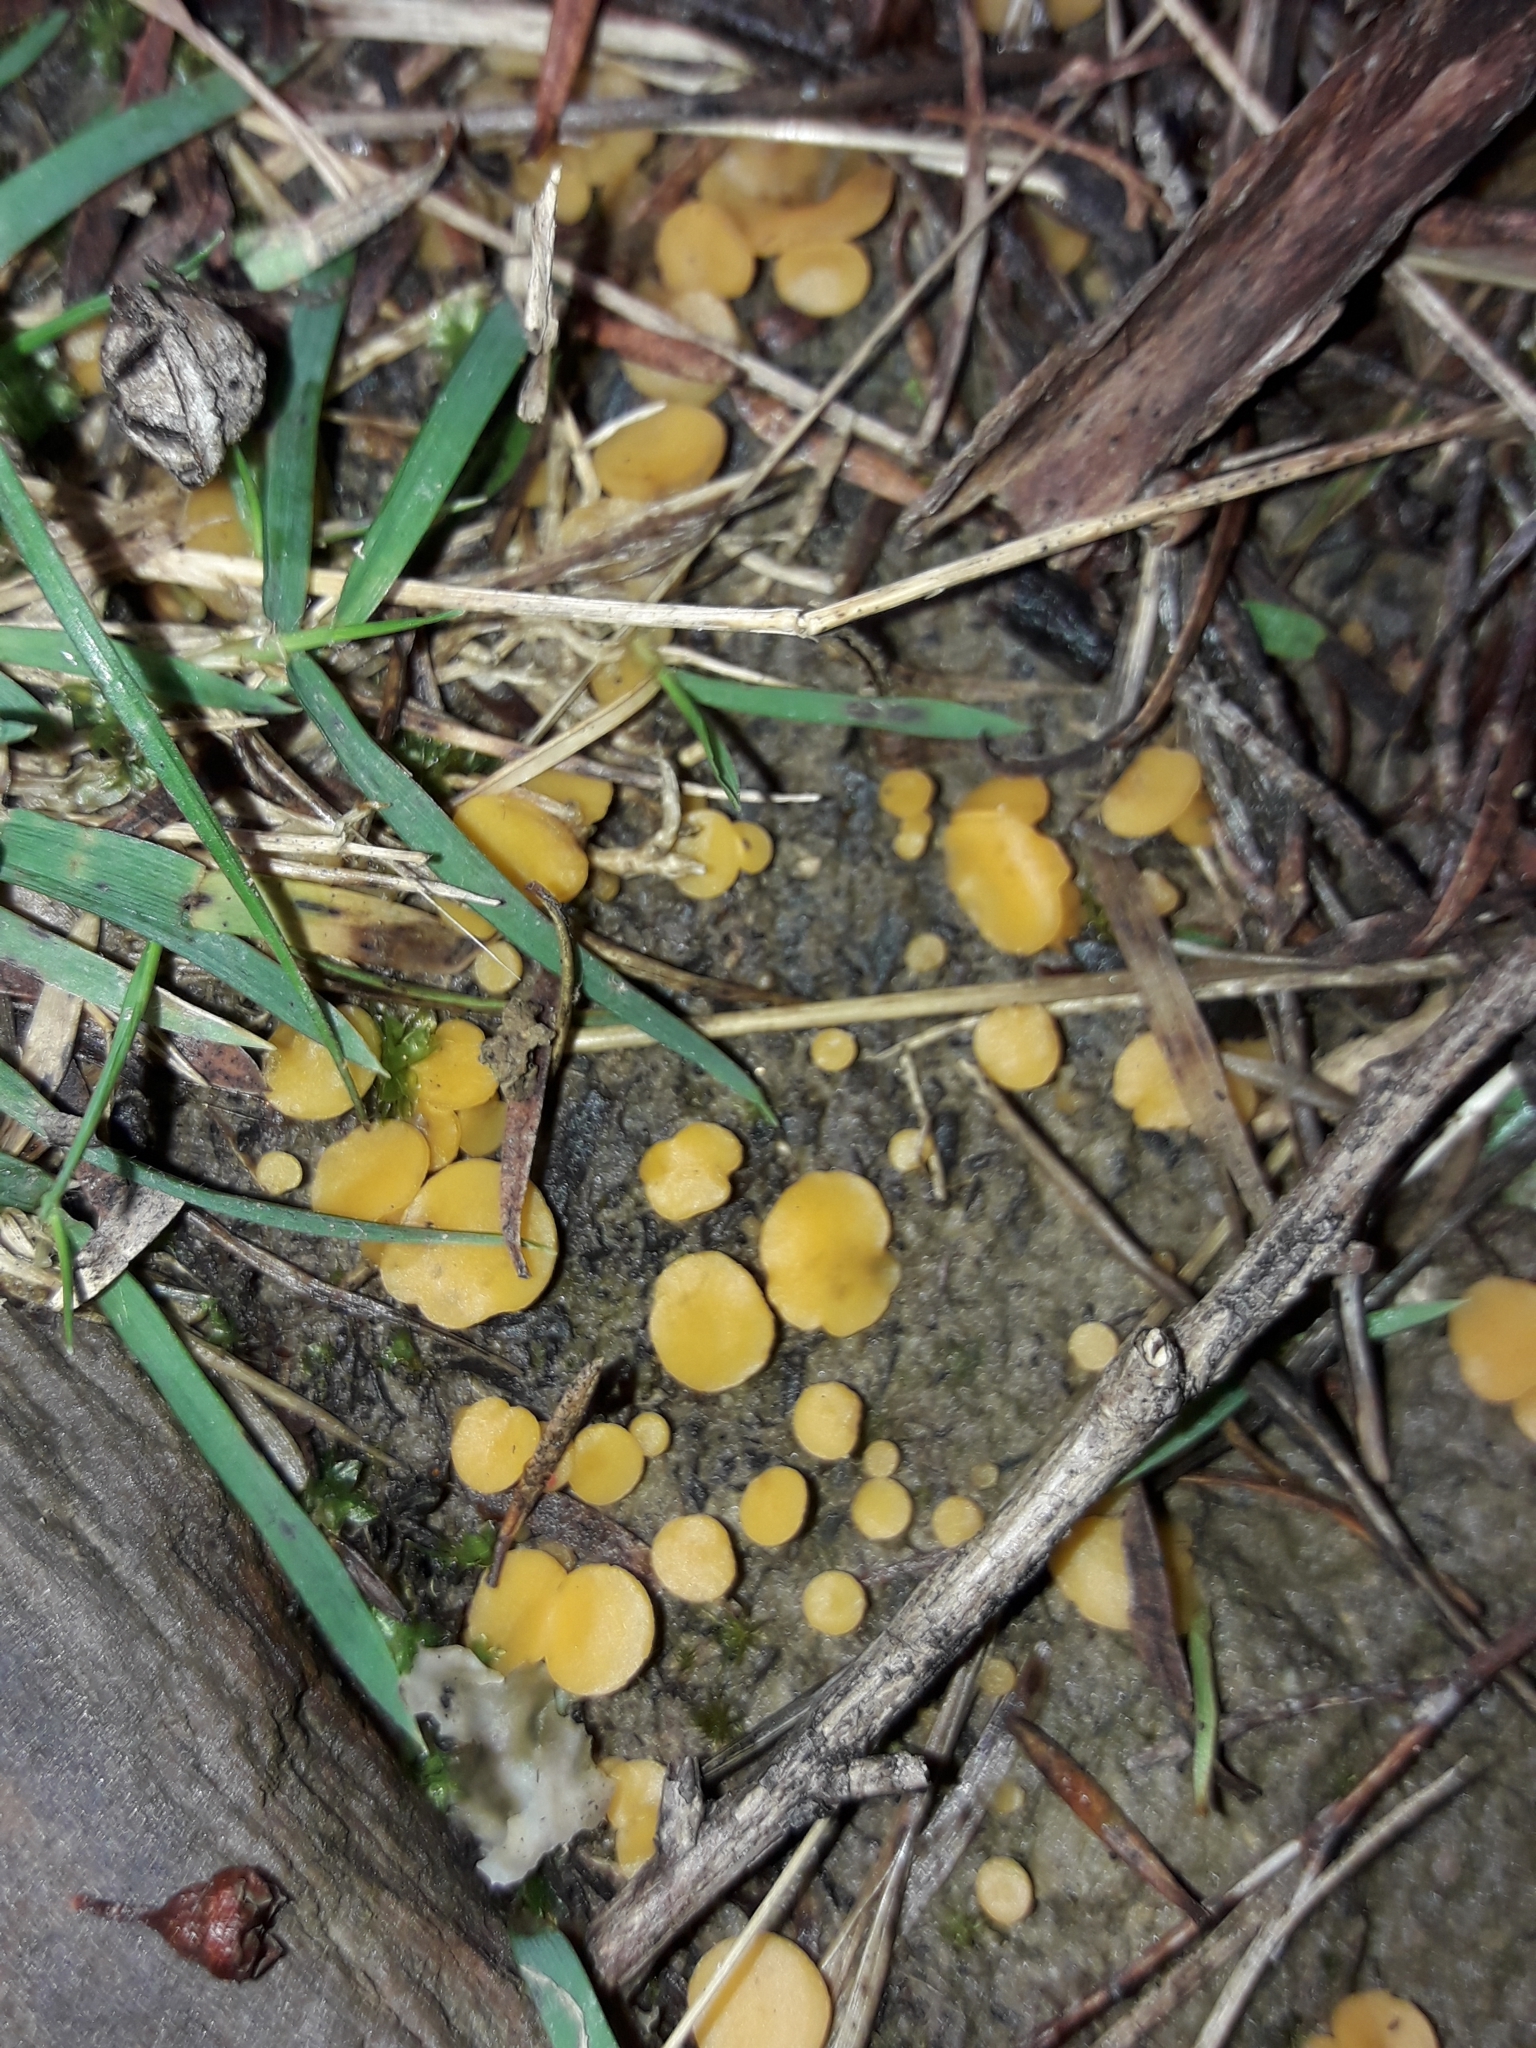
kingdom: Fungi
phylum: Ascomycota
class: Leotiomycetes
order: Helotiales
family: Helotiaceae
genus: Phaeohelotium
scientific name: Phaeohelotium confusum
